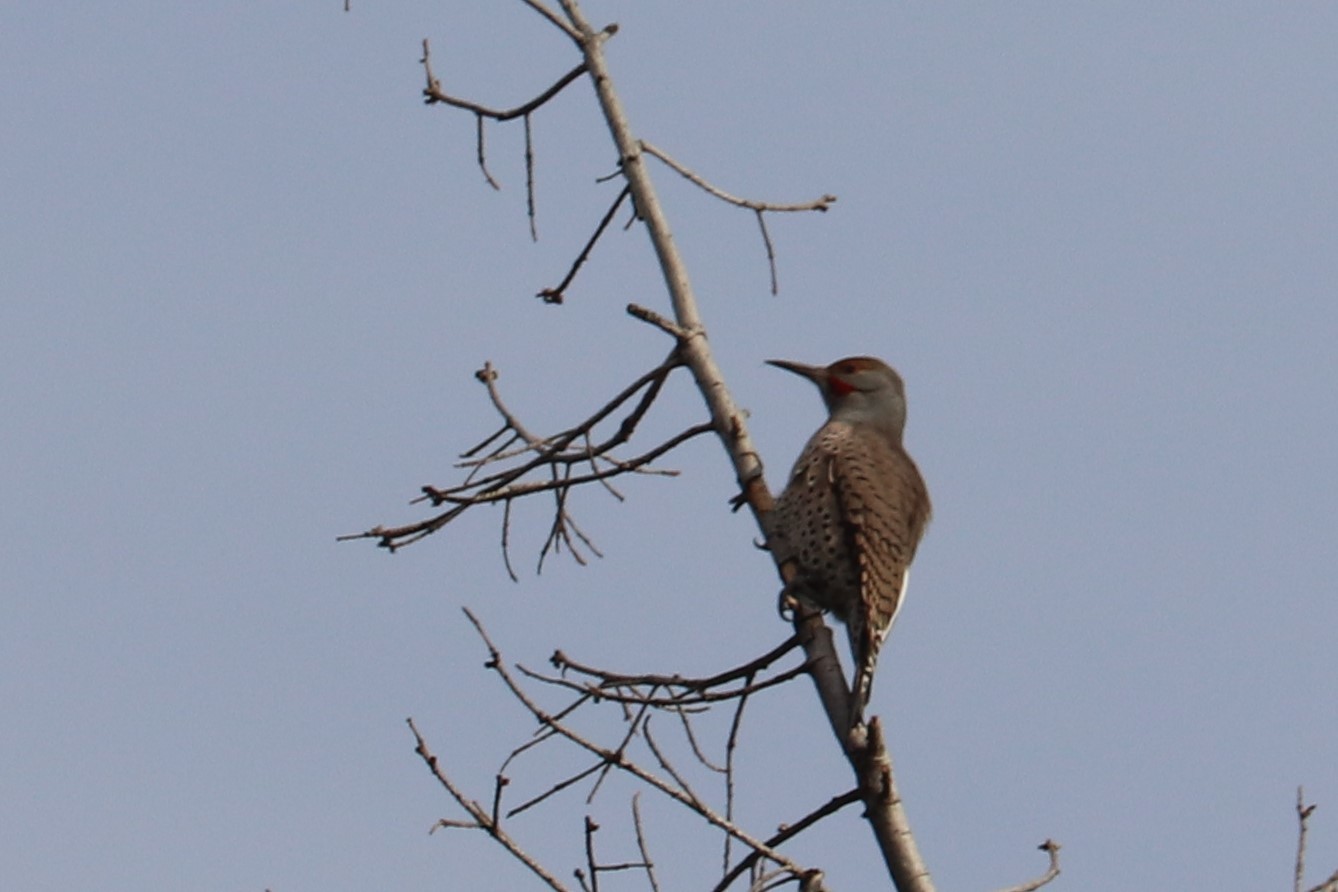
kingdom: Animalia
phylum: Chordata
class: Aves
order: Piciformes
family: Picidae
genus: Colaptes
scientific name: Colaptes auratus
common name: Northern flicker
